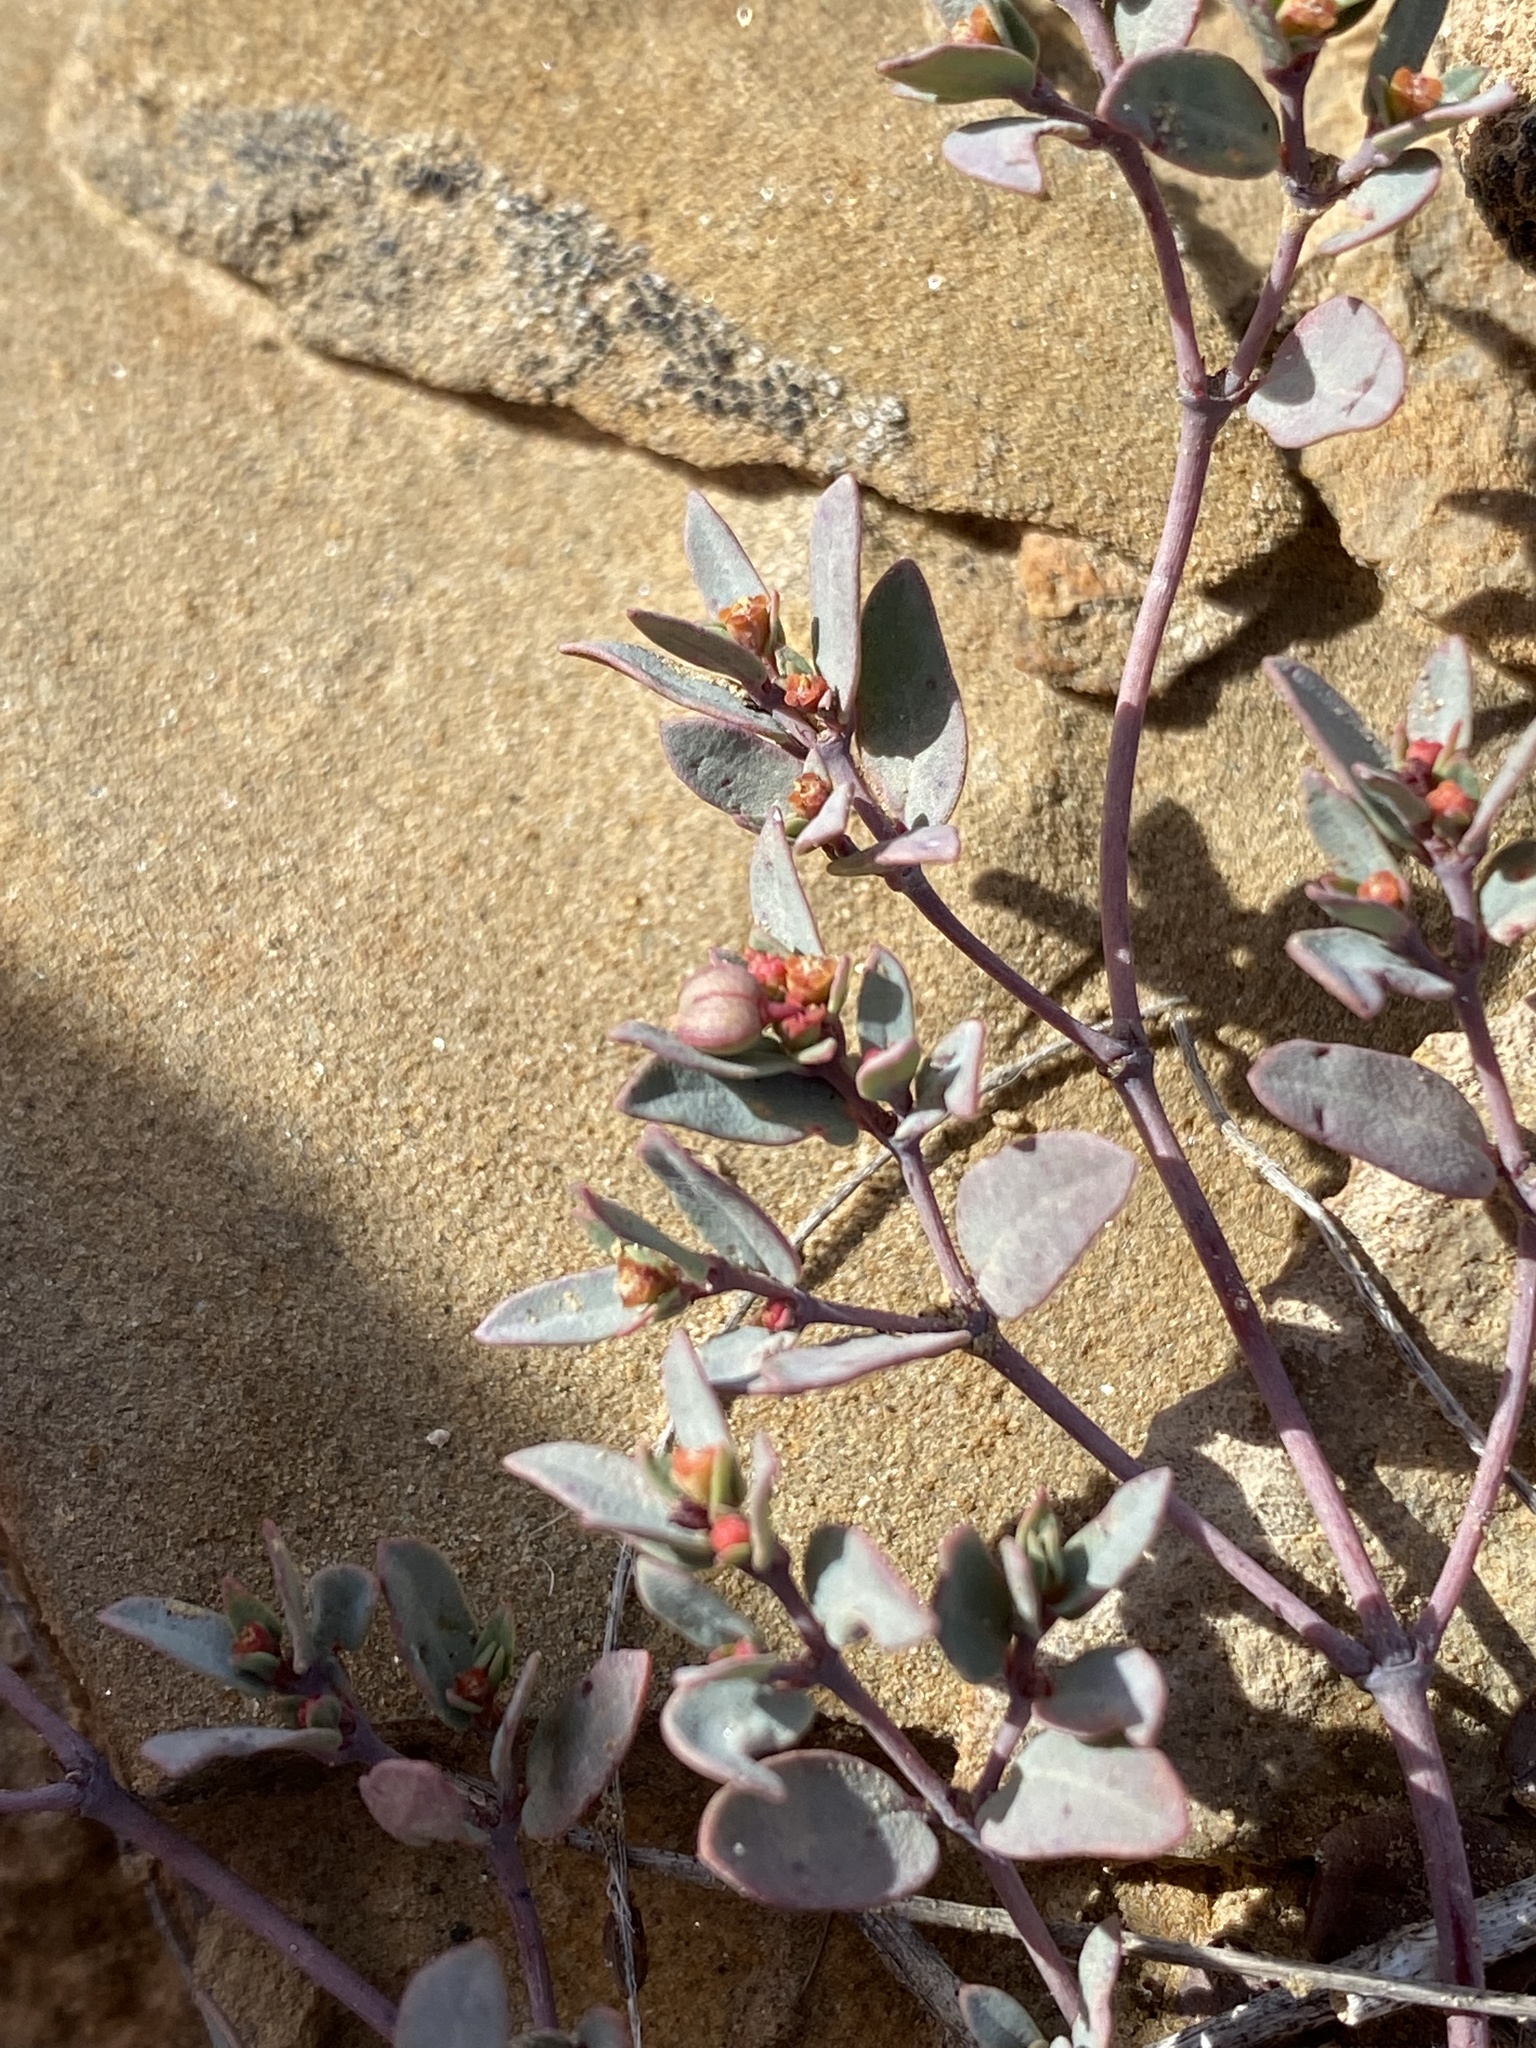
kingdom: Plantae
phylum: Tracheophyta
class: Magnoliopsida
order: Malpighiales
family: Euphorbiaceae
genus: Euphorbia
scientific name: Euphorbia fendleri
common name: Fendler's euphorbia
